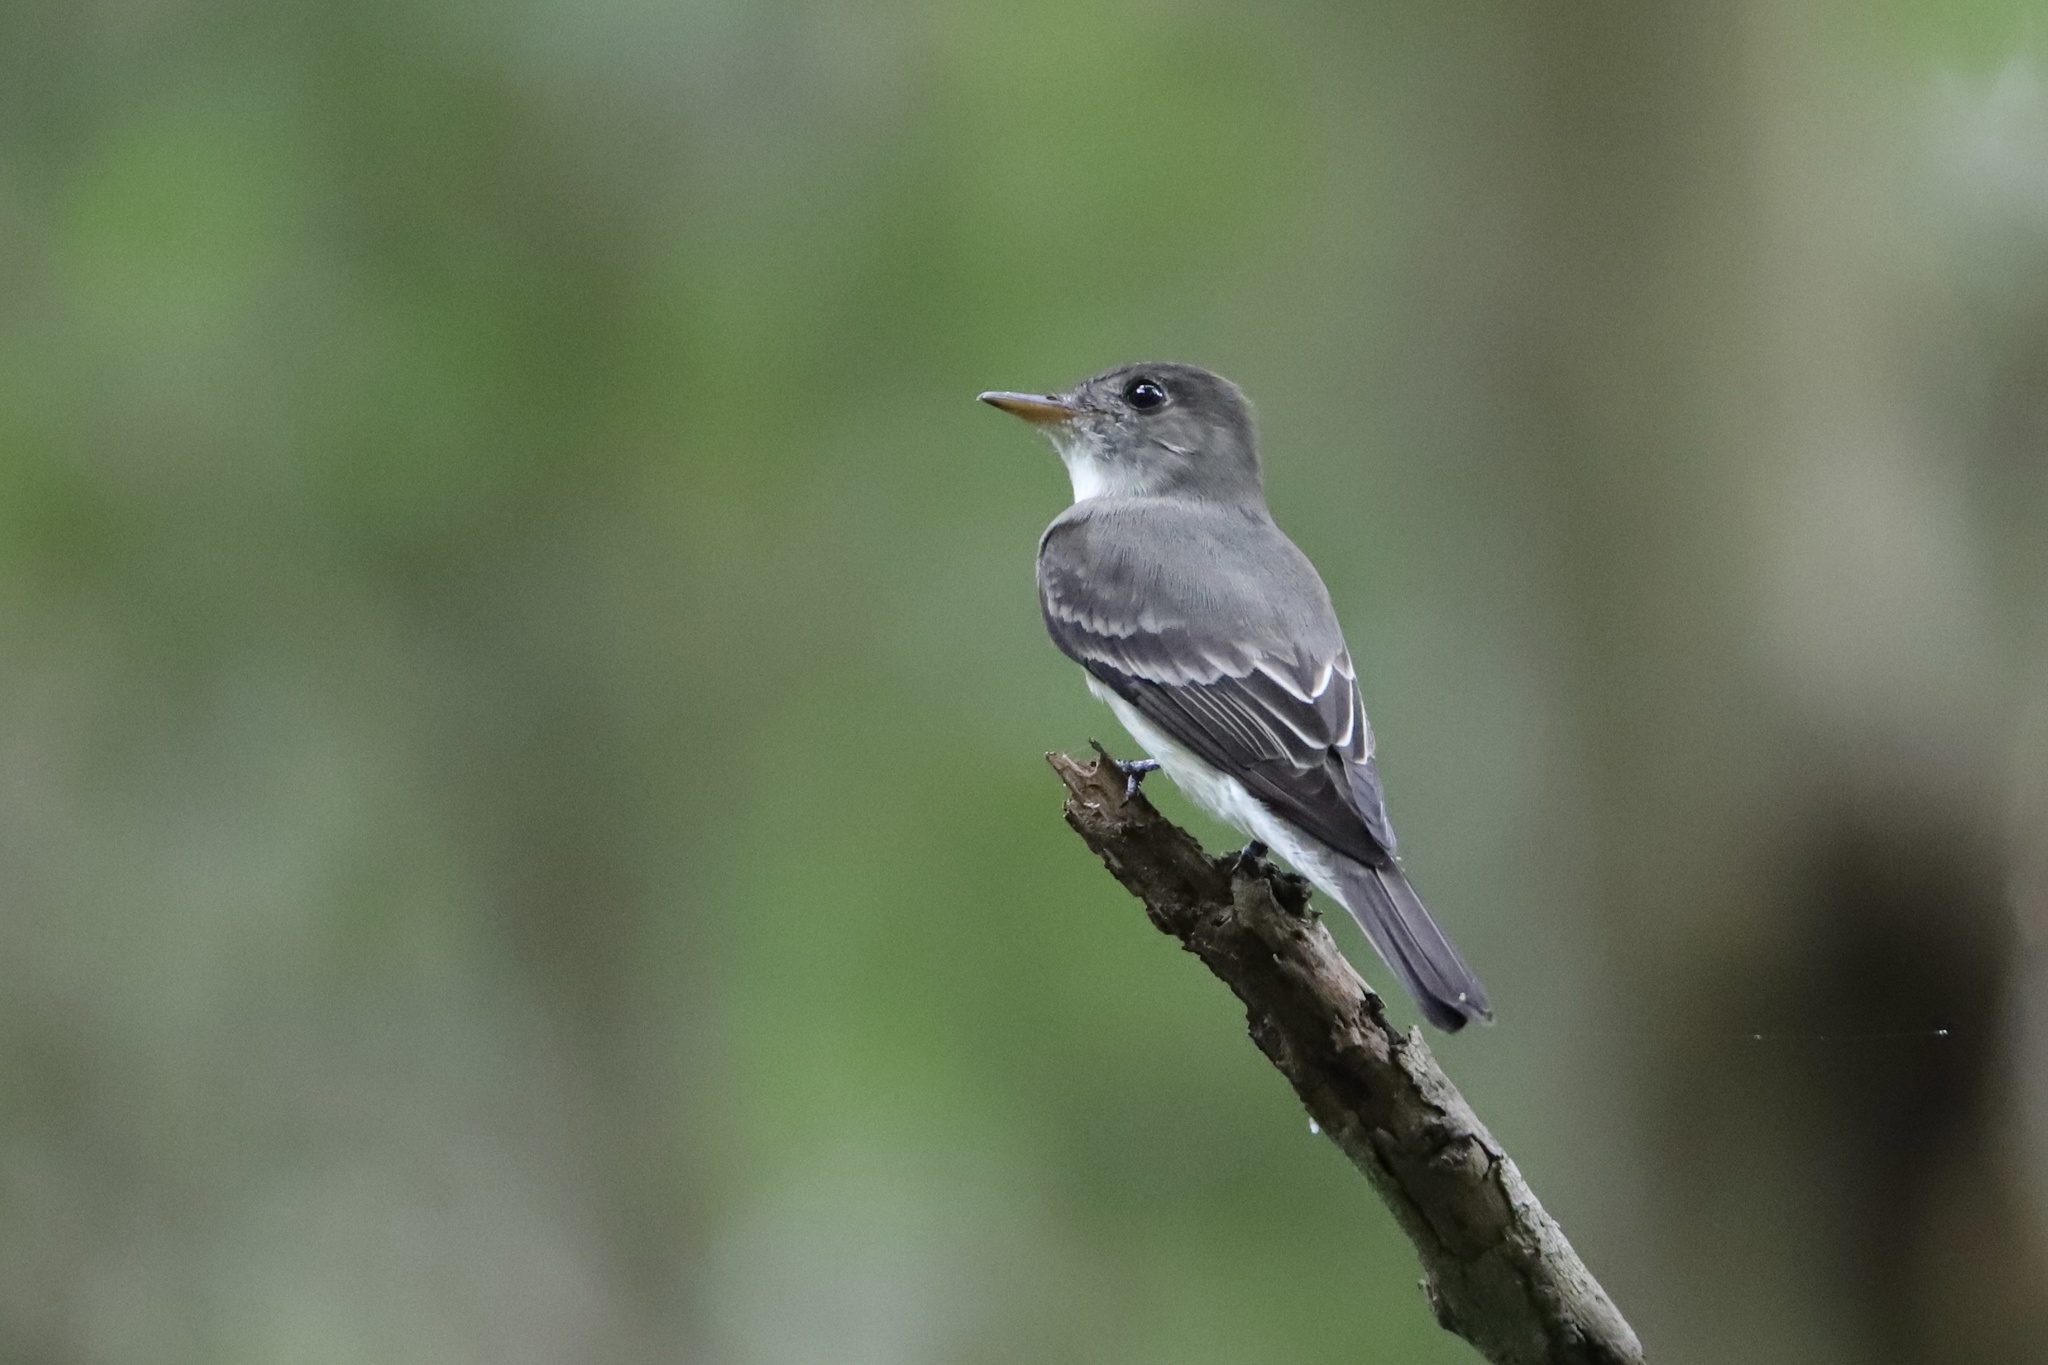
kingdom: Animalia
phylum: Chordata
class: Aves
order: Passeriformes
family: Tyrannidae
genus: Contopus
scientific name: Contopus cinereus
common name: Tropical pewee
